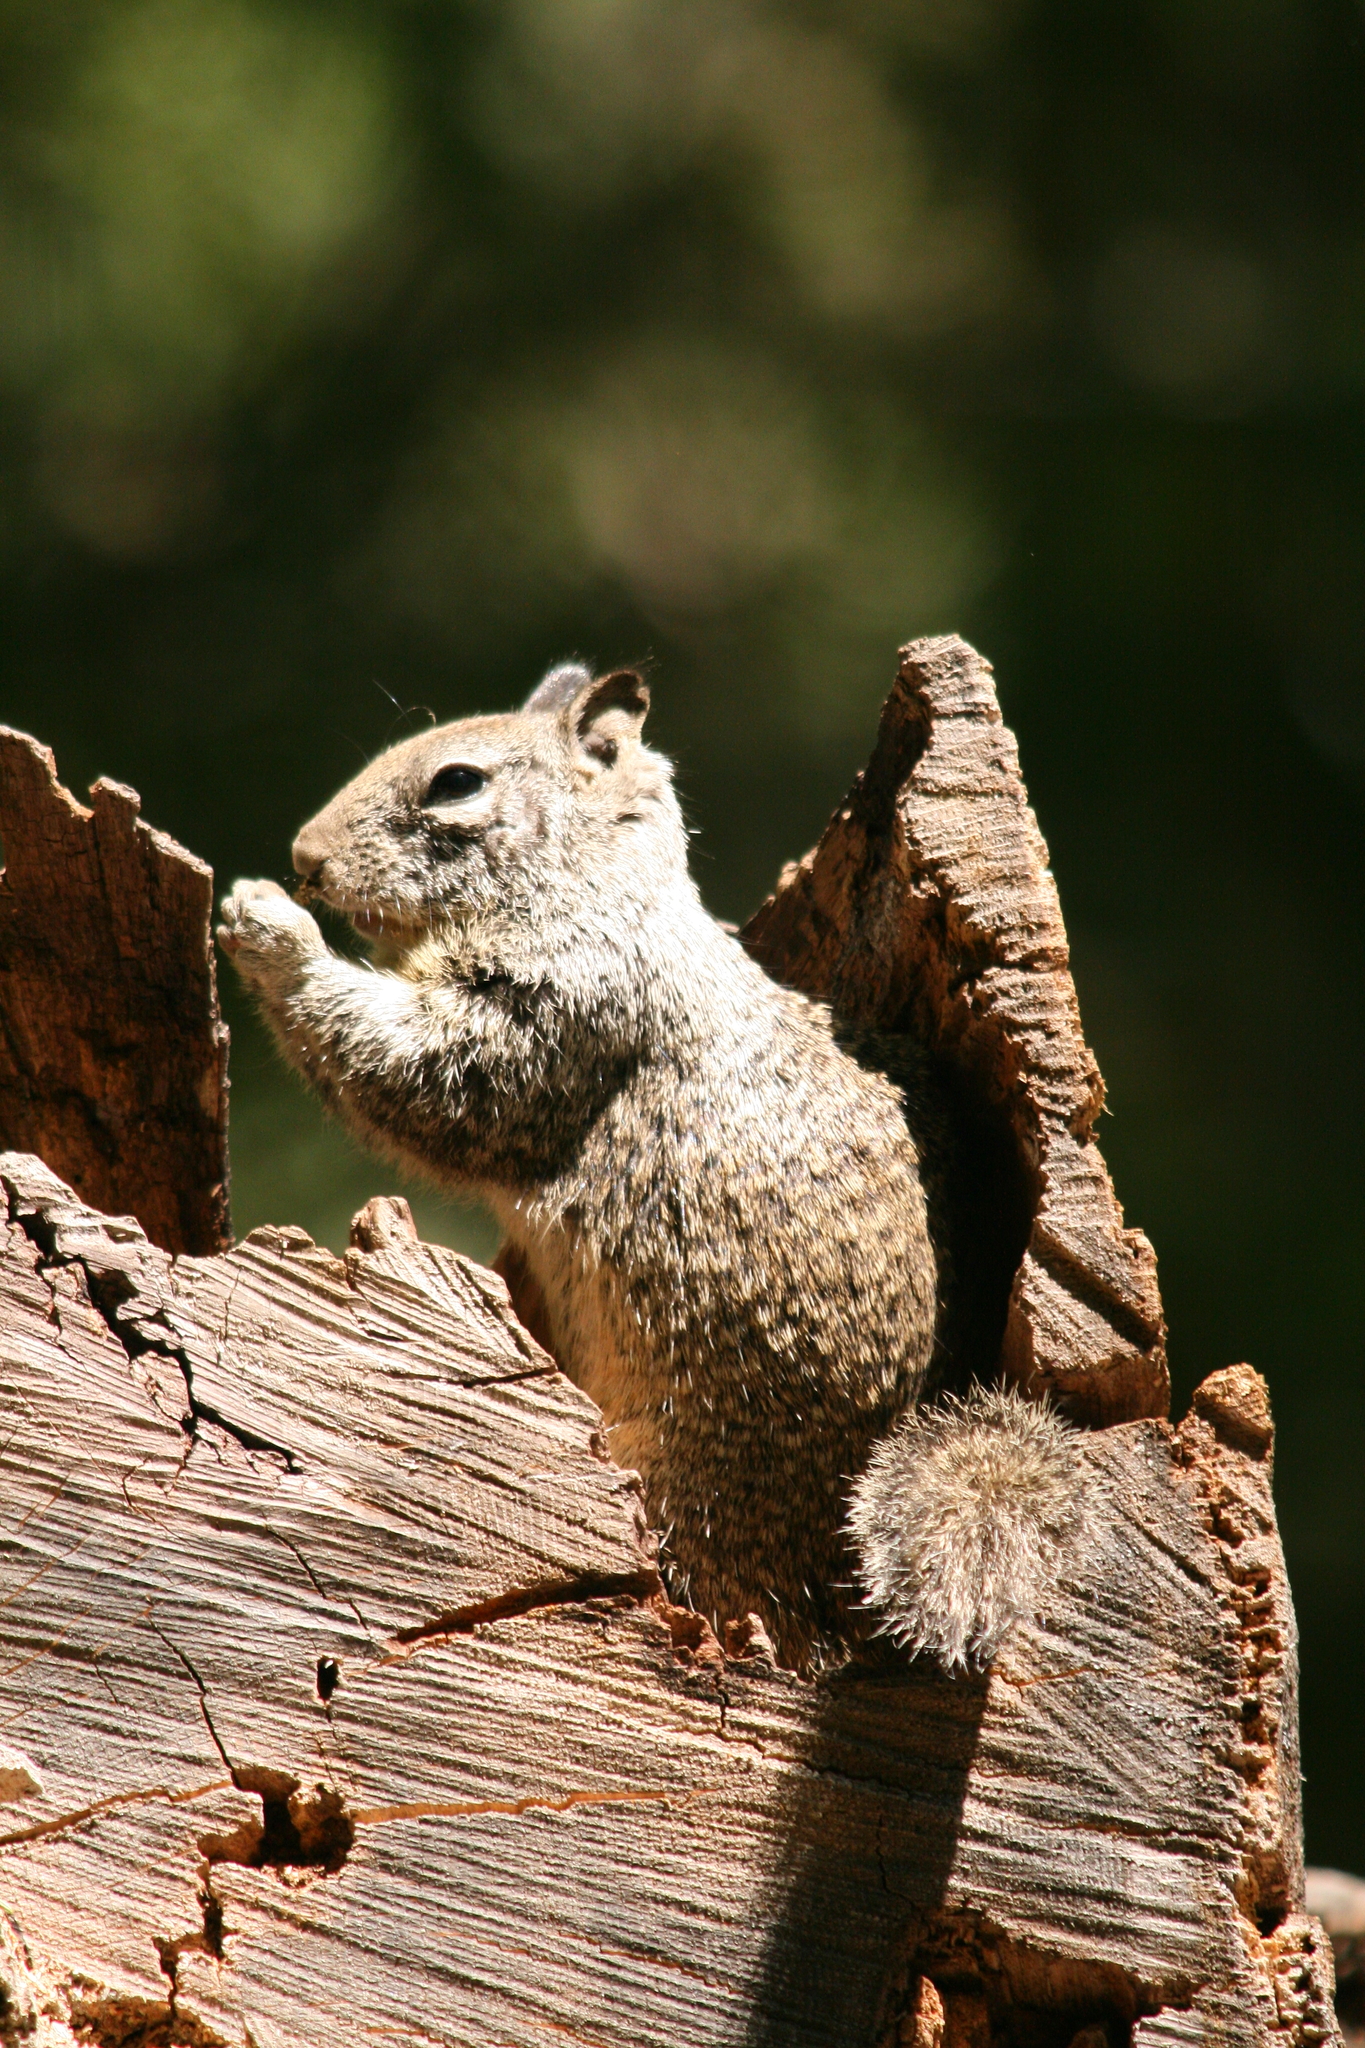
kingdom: Animalia
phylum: Chordata
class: Mammalia
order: Rodentia
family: Sciuridae
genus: Otospermophilus
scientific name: Otospermophilus beecheyi
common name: California ground squirrel
